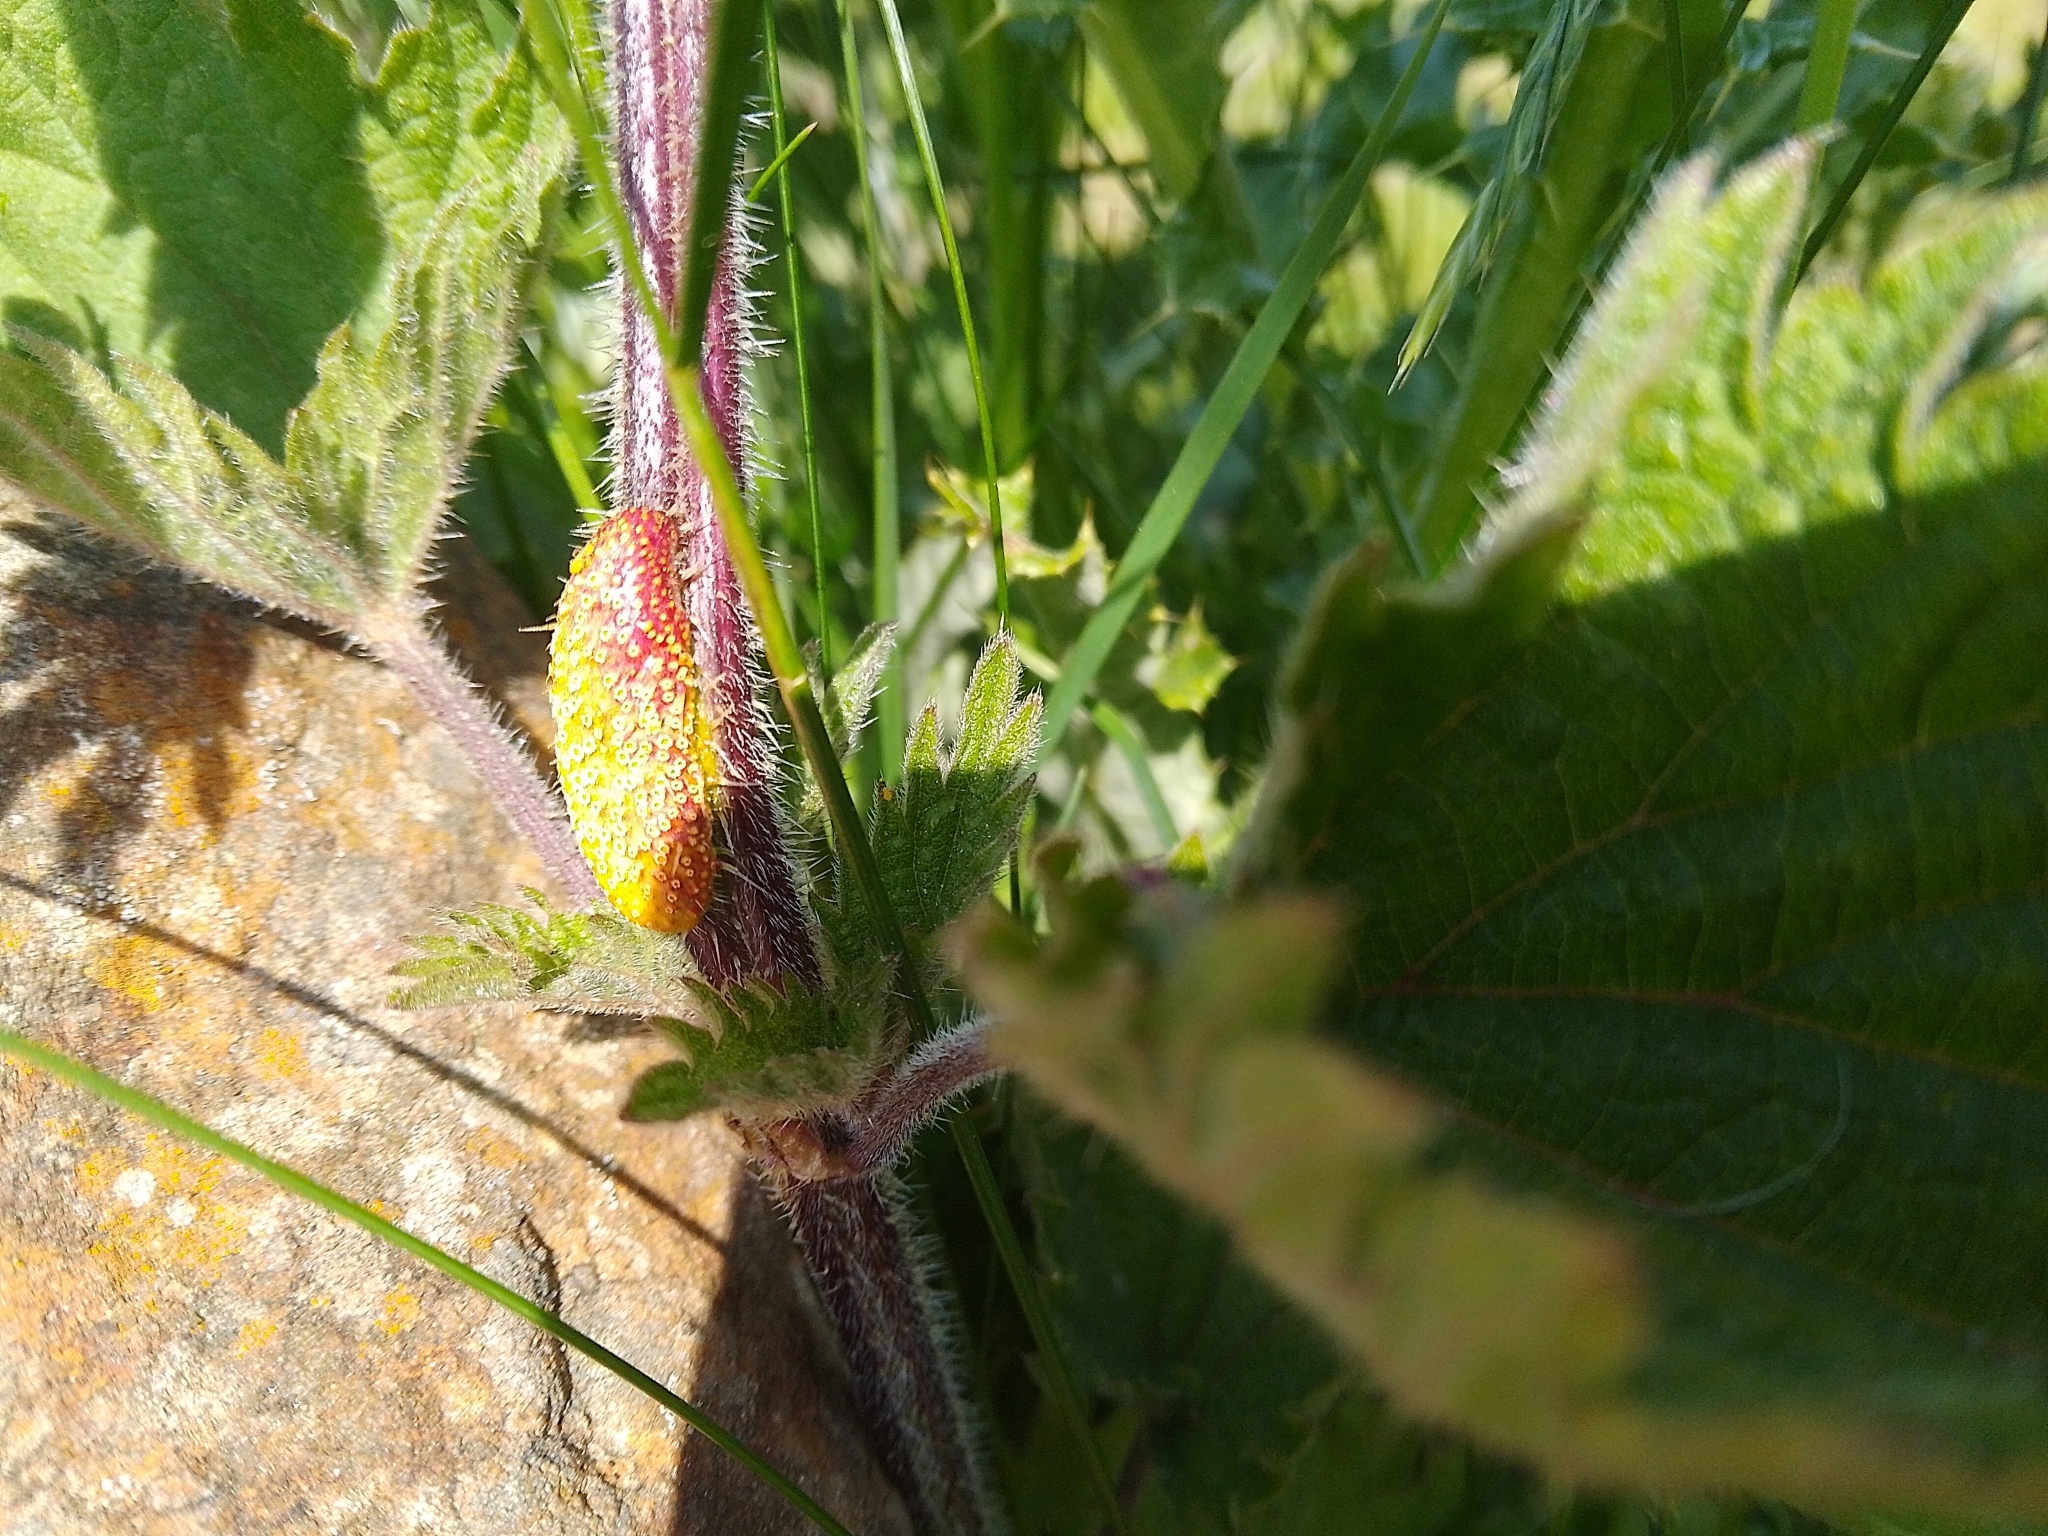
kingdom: Fungi
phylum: Basidiomycota
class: Pucciniomycetes
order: Pucciniales
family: Pucciniaceae
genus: Puccinia
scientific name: Puccinia urticata
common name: Nettle clustercup rust fungus
